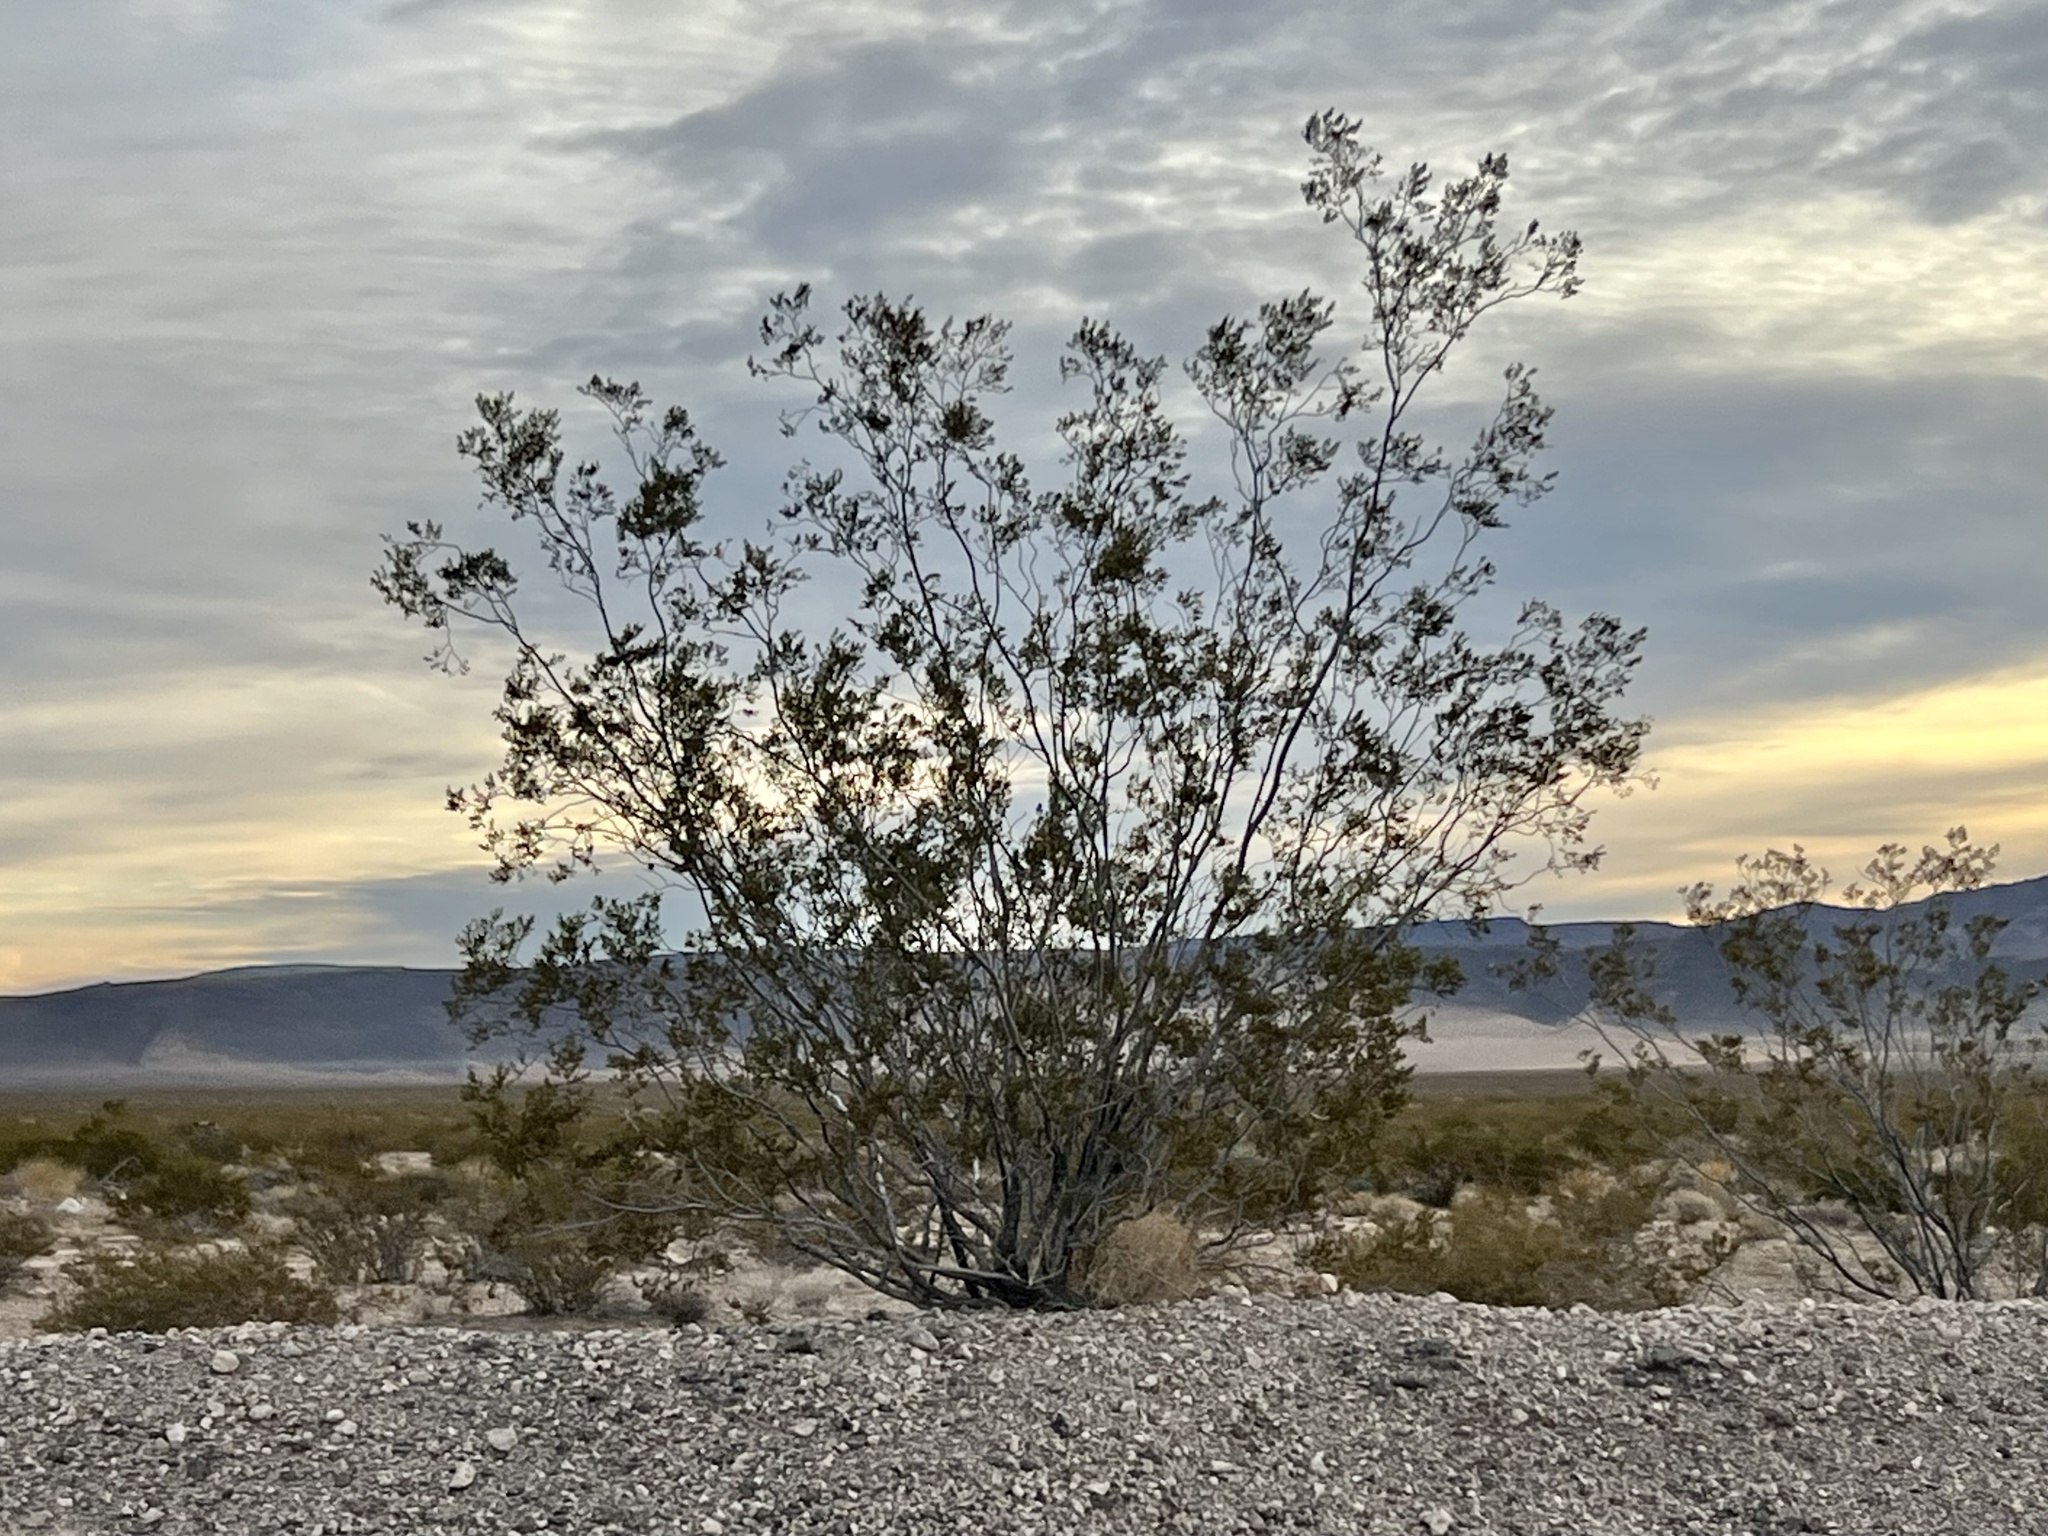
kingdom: Plantae
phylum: Tracheophyta
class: Magnoliopsida
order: Zygophyllales
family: Zygophyllaceae
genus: Larrea
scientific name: Larrea tridentata
